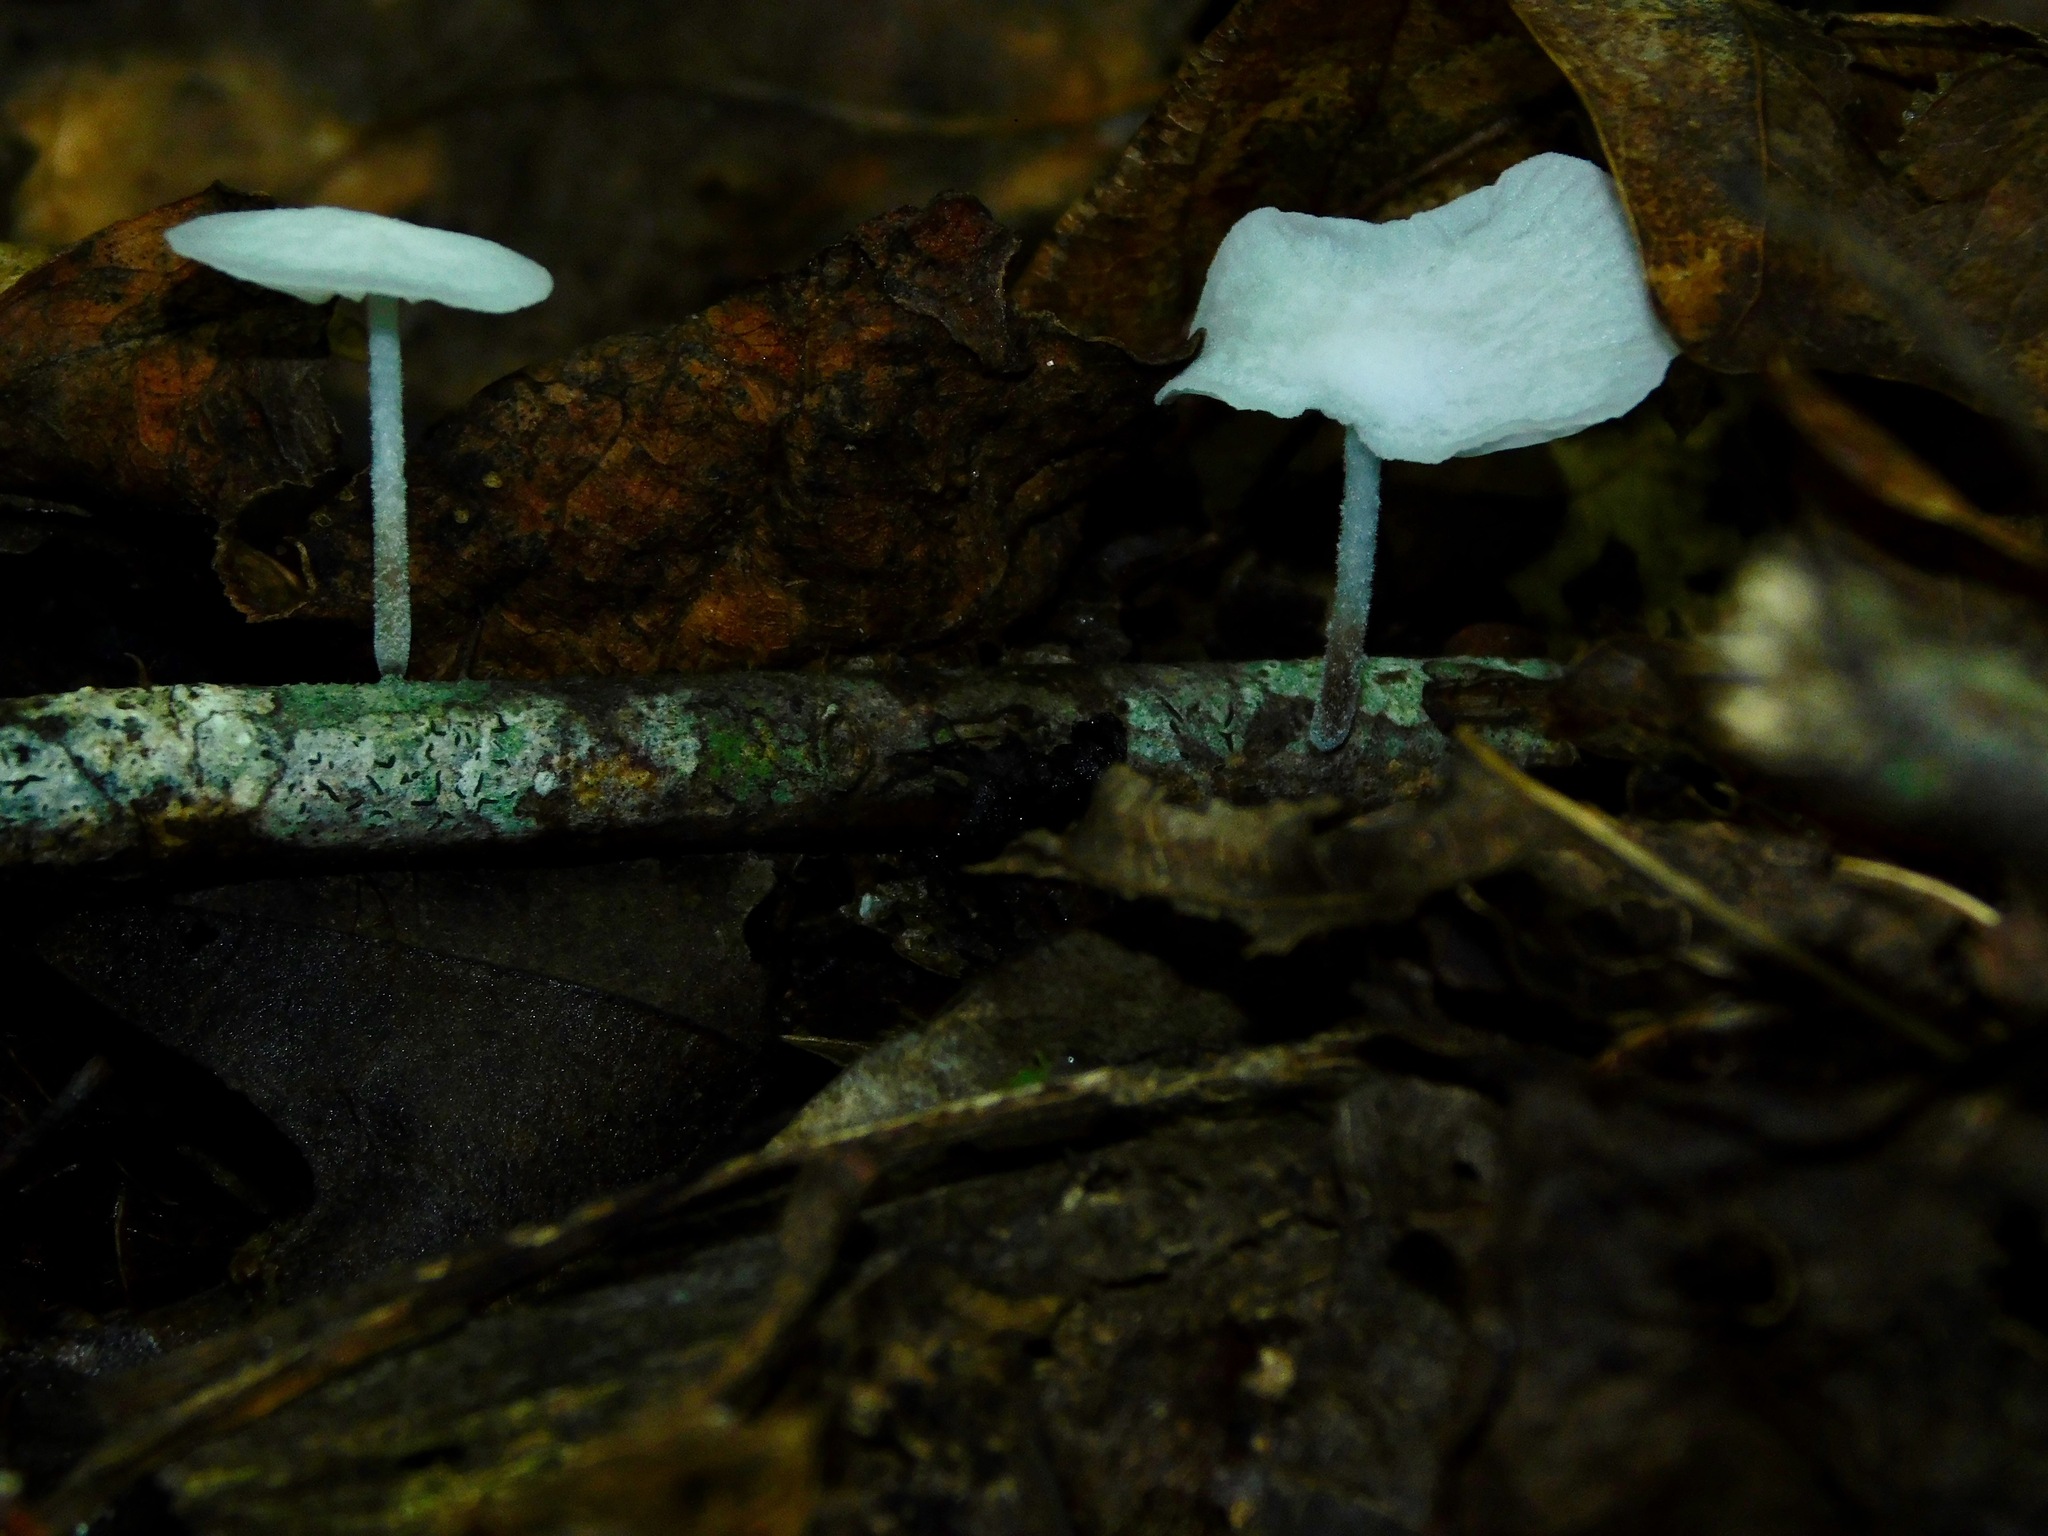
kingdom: Fungi
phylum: Basidiomycota
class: Agaricomycetes
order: Agaricales
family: Omphalotaceae
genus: Marasmiellus
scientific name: Marasmiellus candidus
